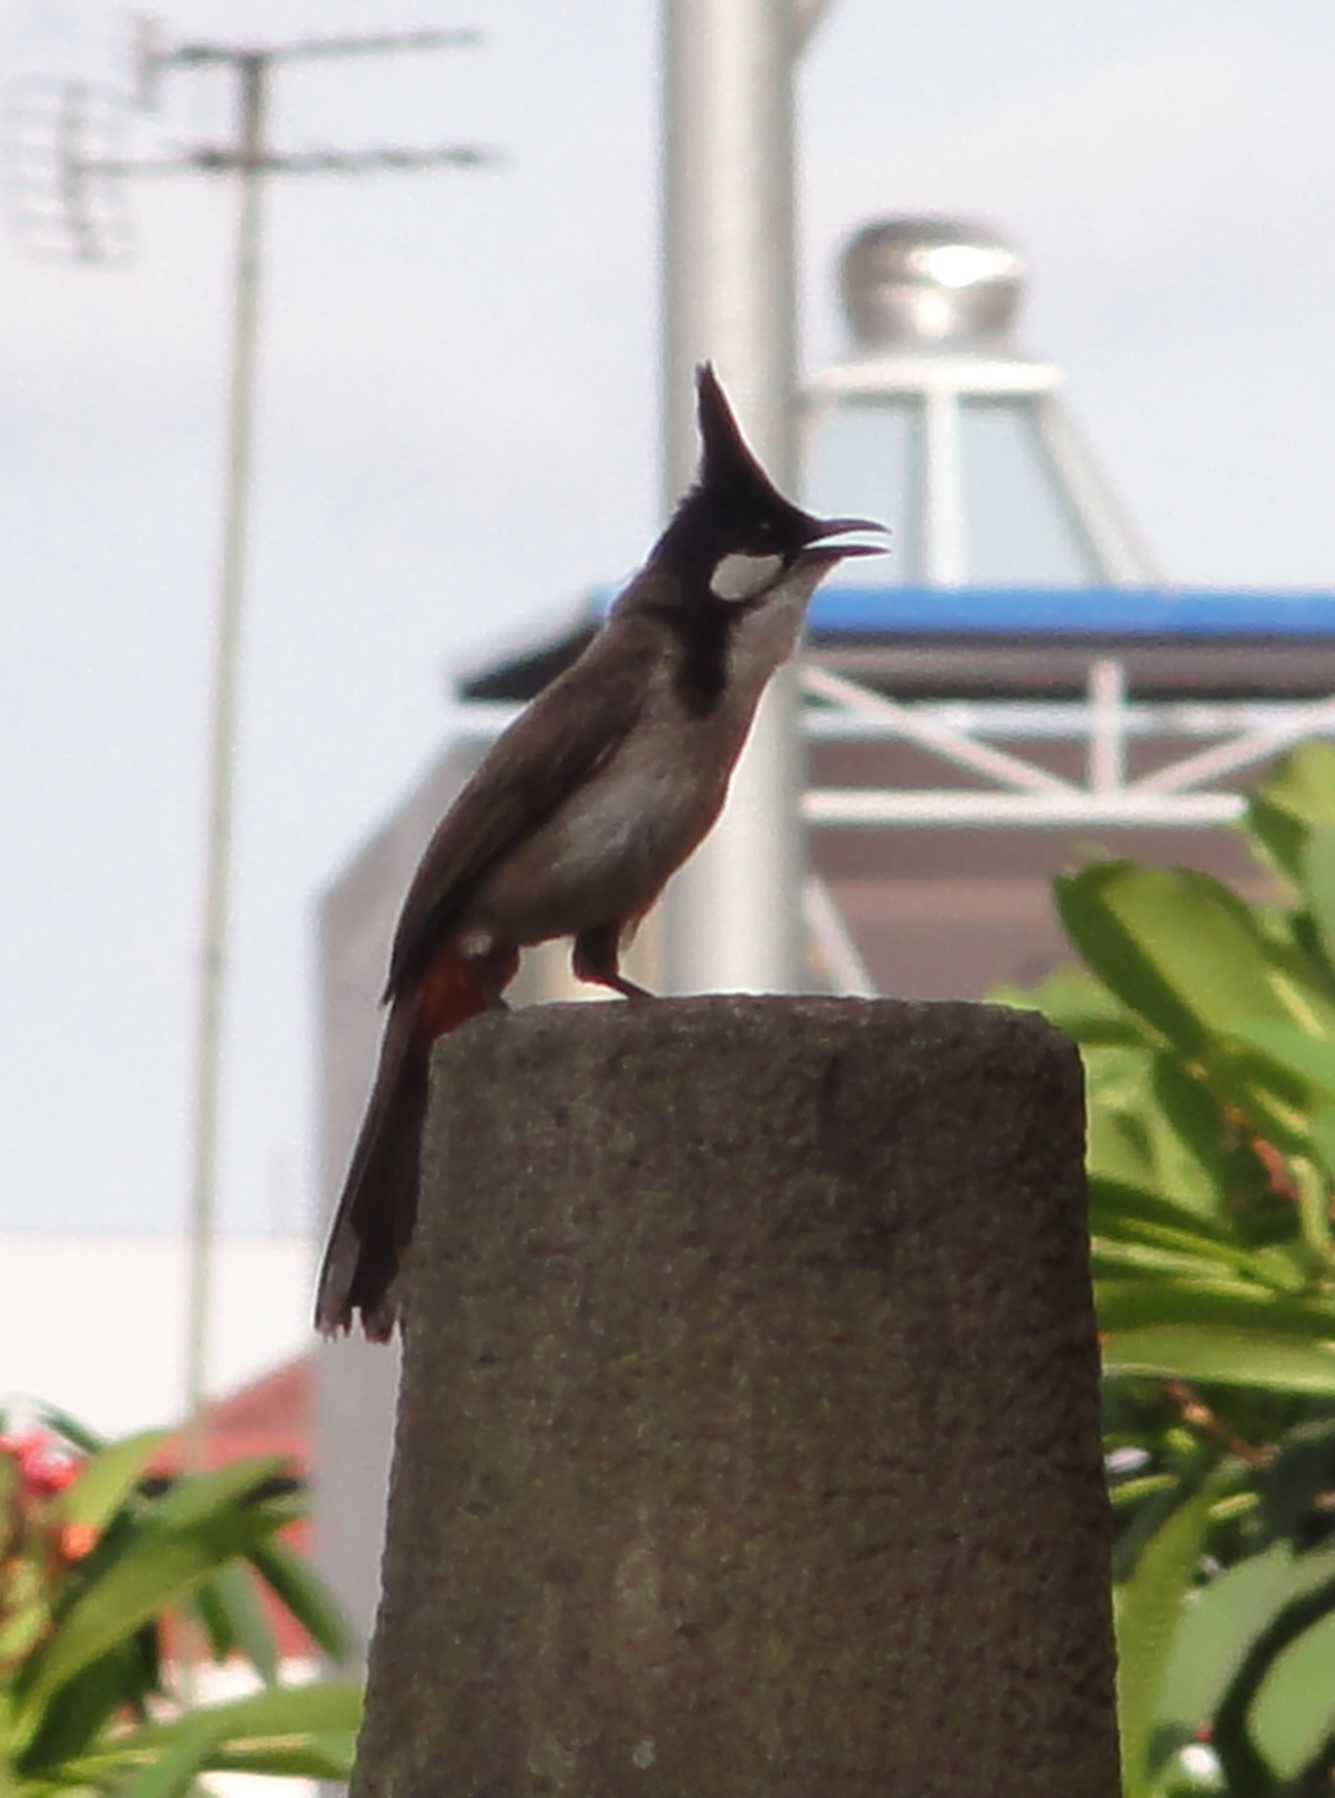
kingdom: Animalia
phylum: Chordata
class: Aves
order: Passeriformes
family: Pycnonotidae
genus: Pycnonotus
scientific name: Pycnonotus jocosus
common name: Red-whiskered bulbul
